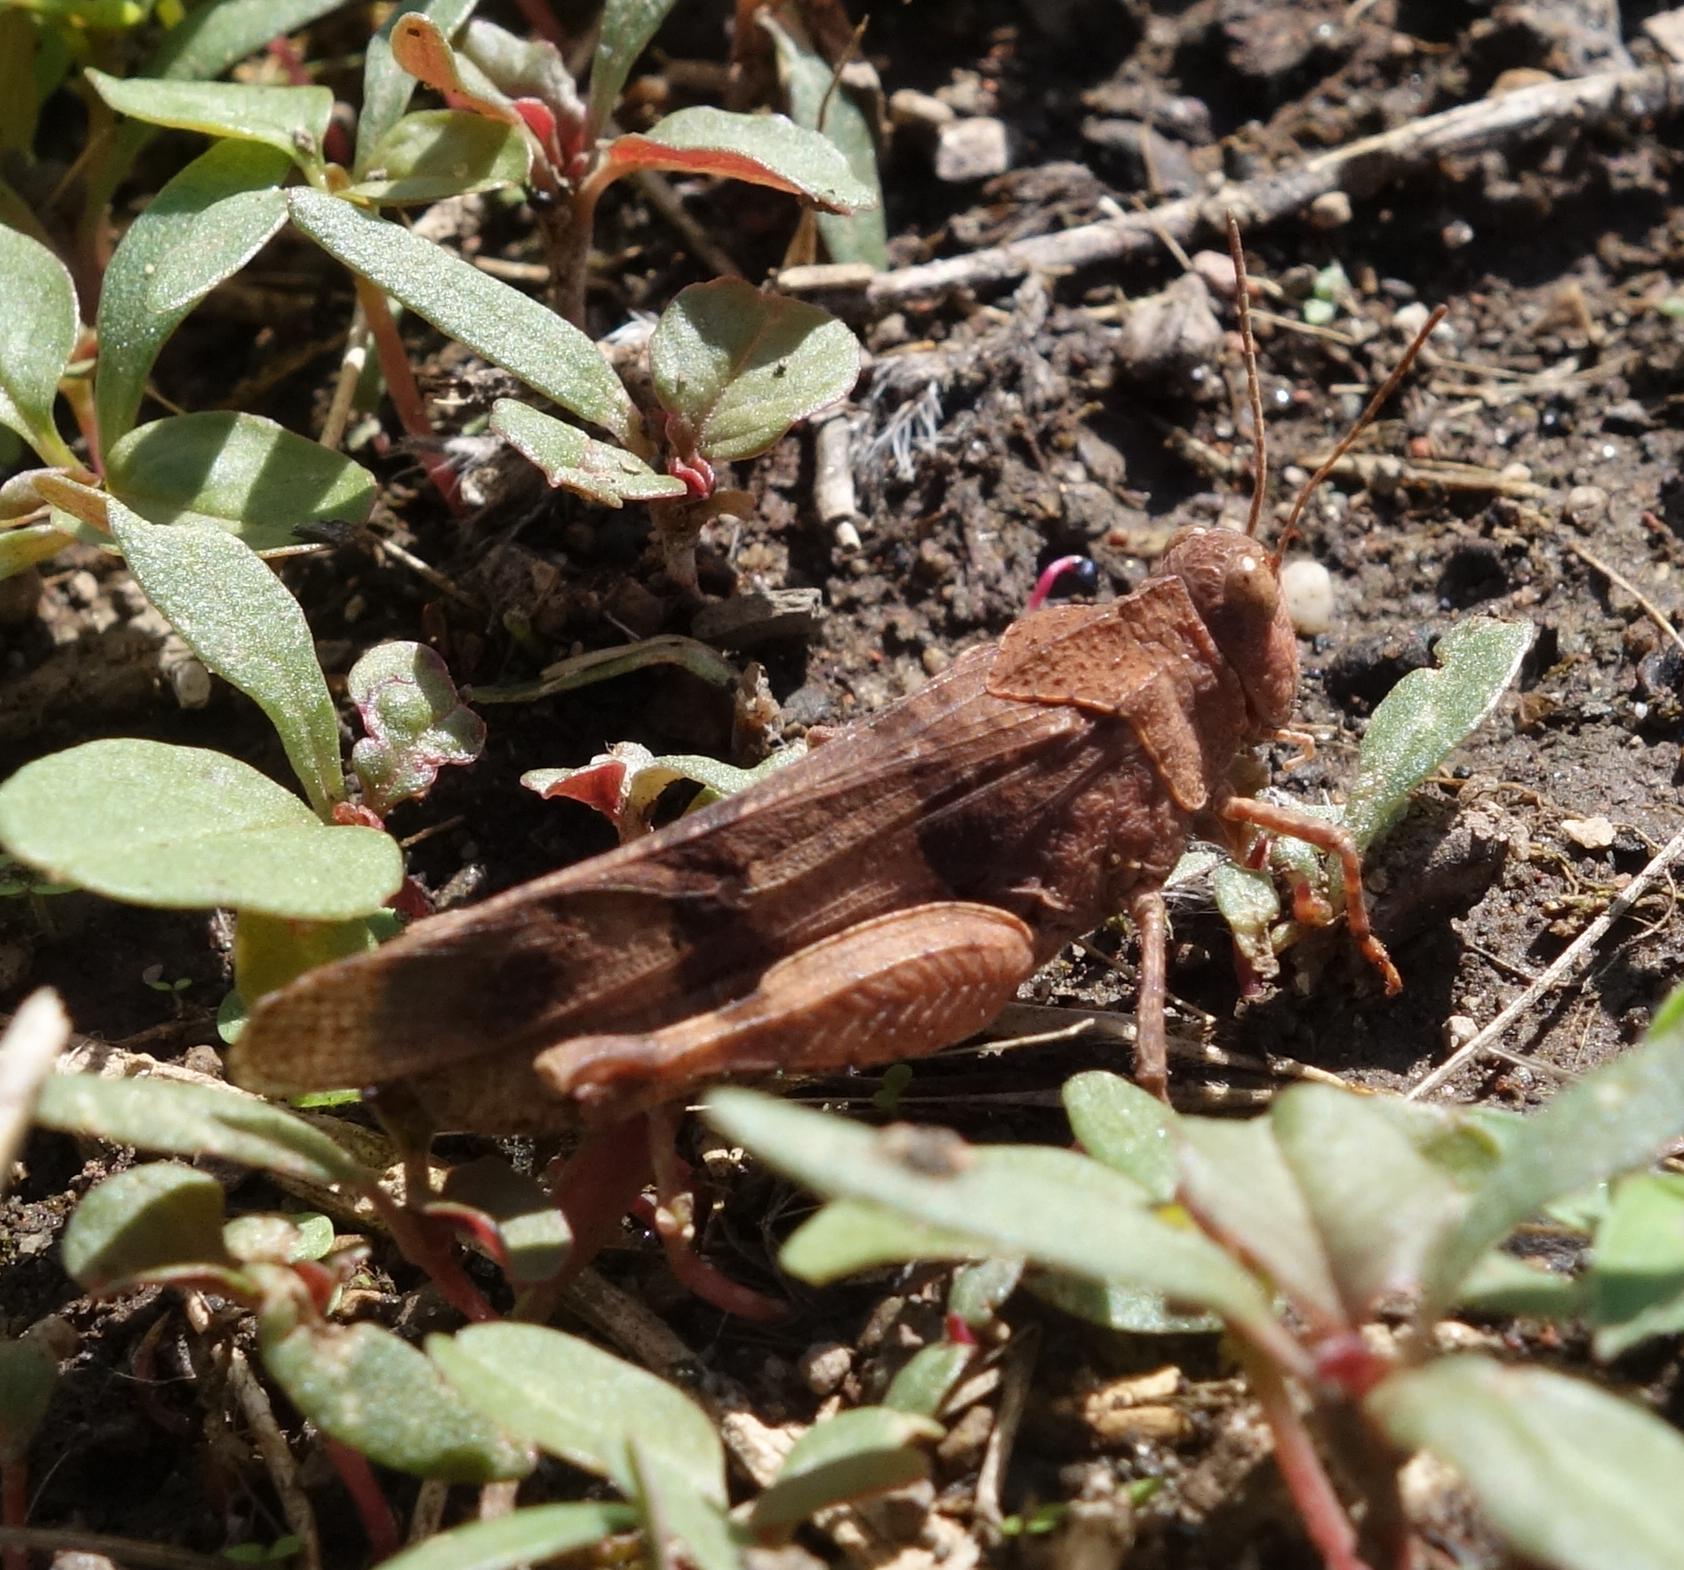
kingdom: Animalia
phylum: Arthropoda
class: Insecta
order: Orthoptera
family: Acrididae
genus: Oedipoda
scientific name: Oedipoda caerulescens
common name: Blue-winged grasshopper
